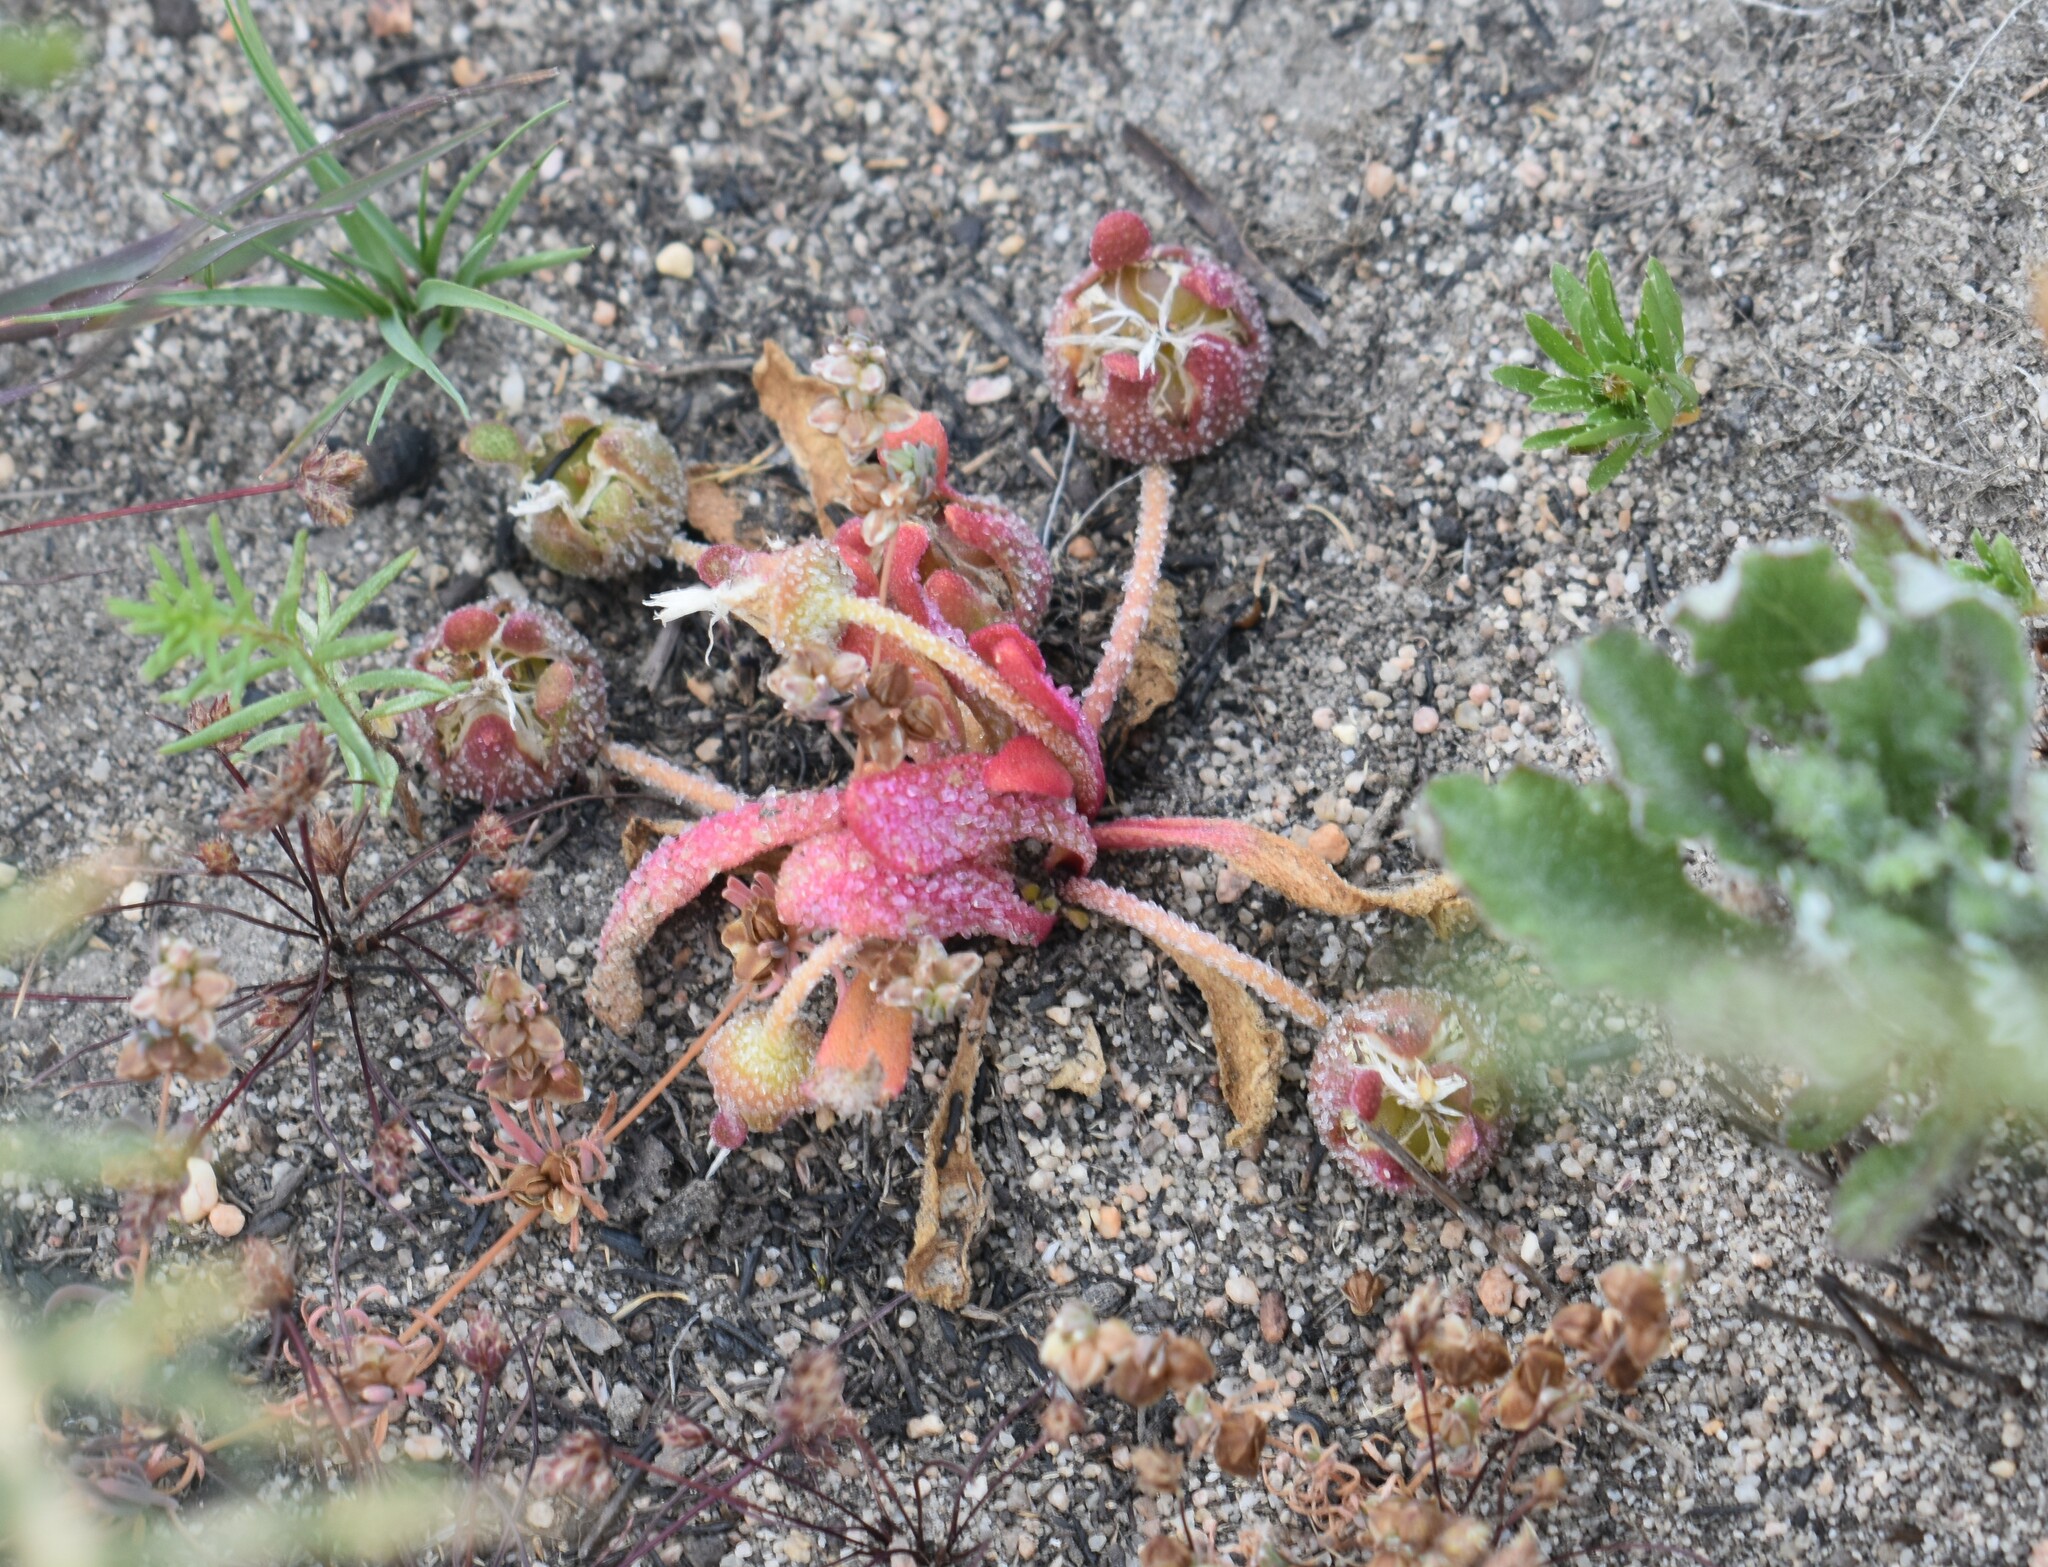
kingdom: Plantae
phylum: Tracheophyta
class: Magnoliopsida
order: Caryophyllales
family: Aizoaceae
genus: Cleretum
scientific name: Cleretum herrei
